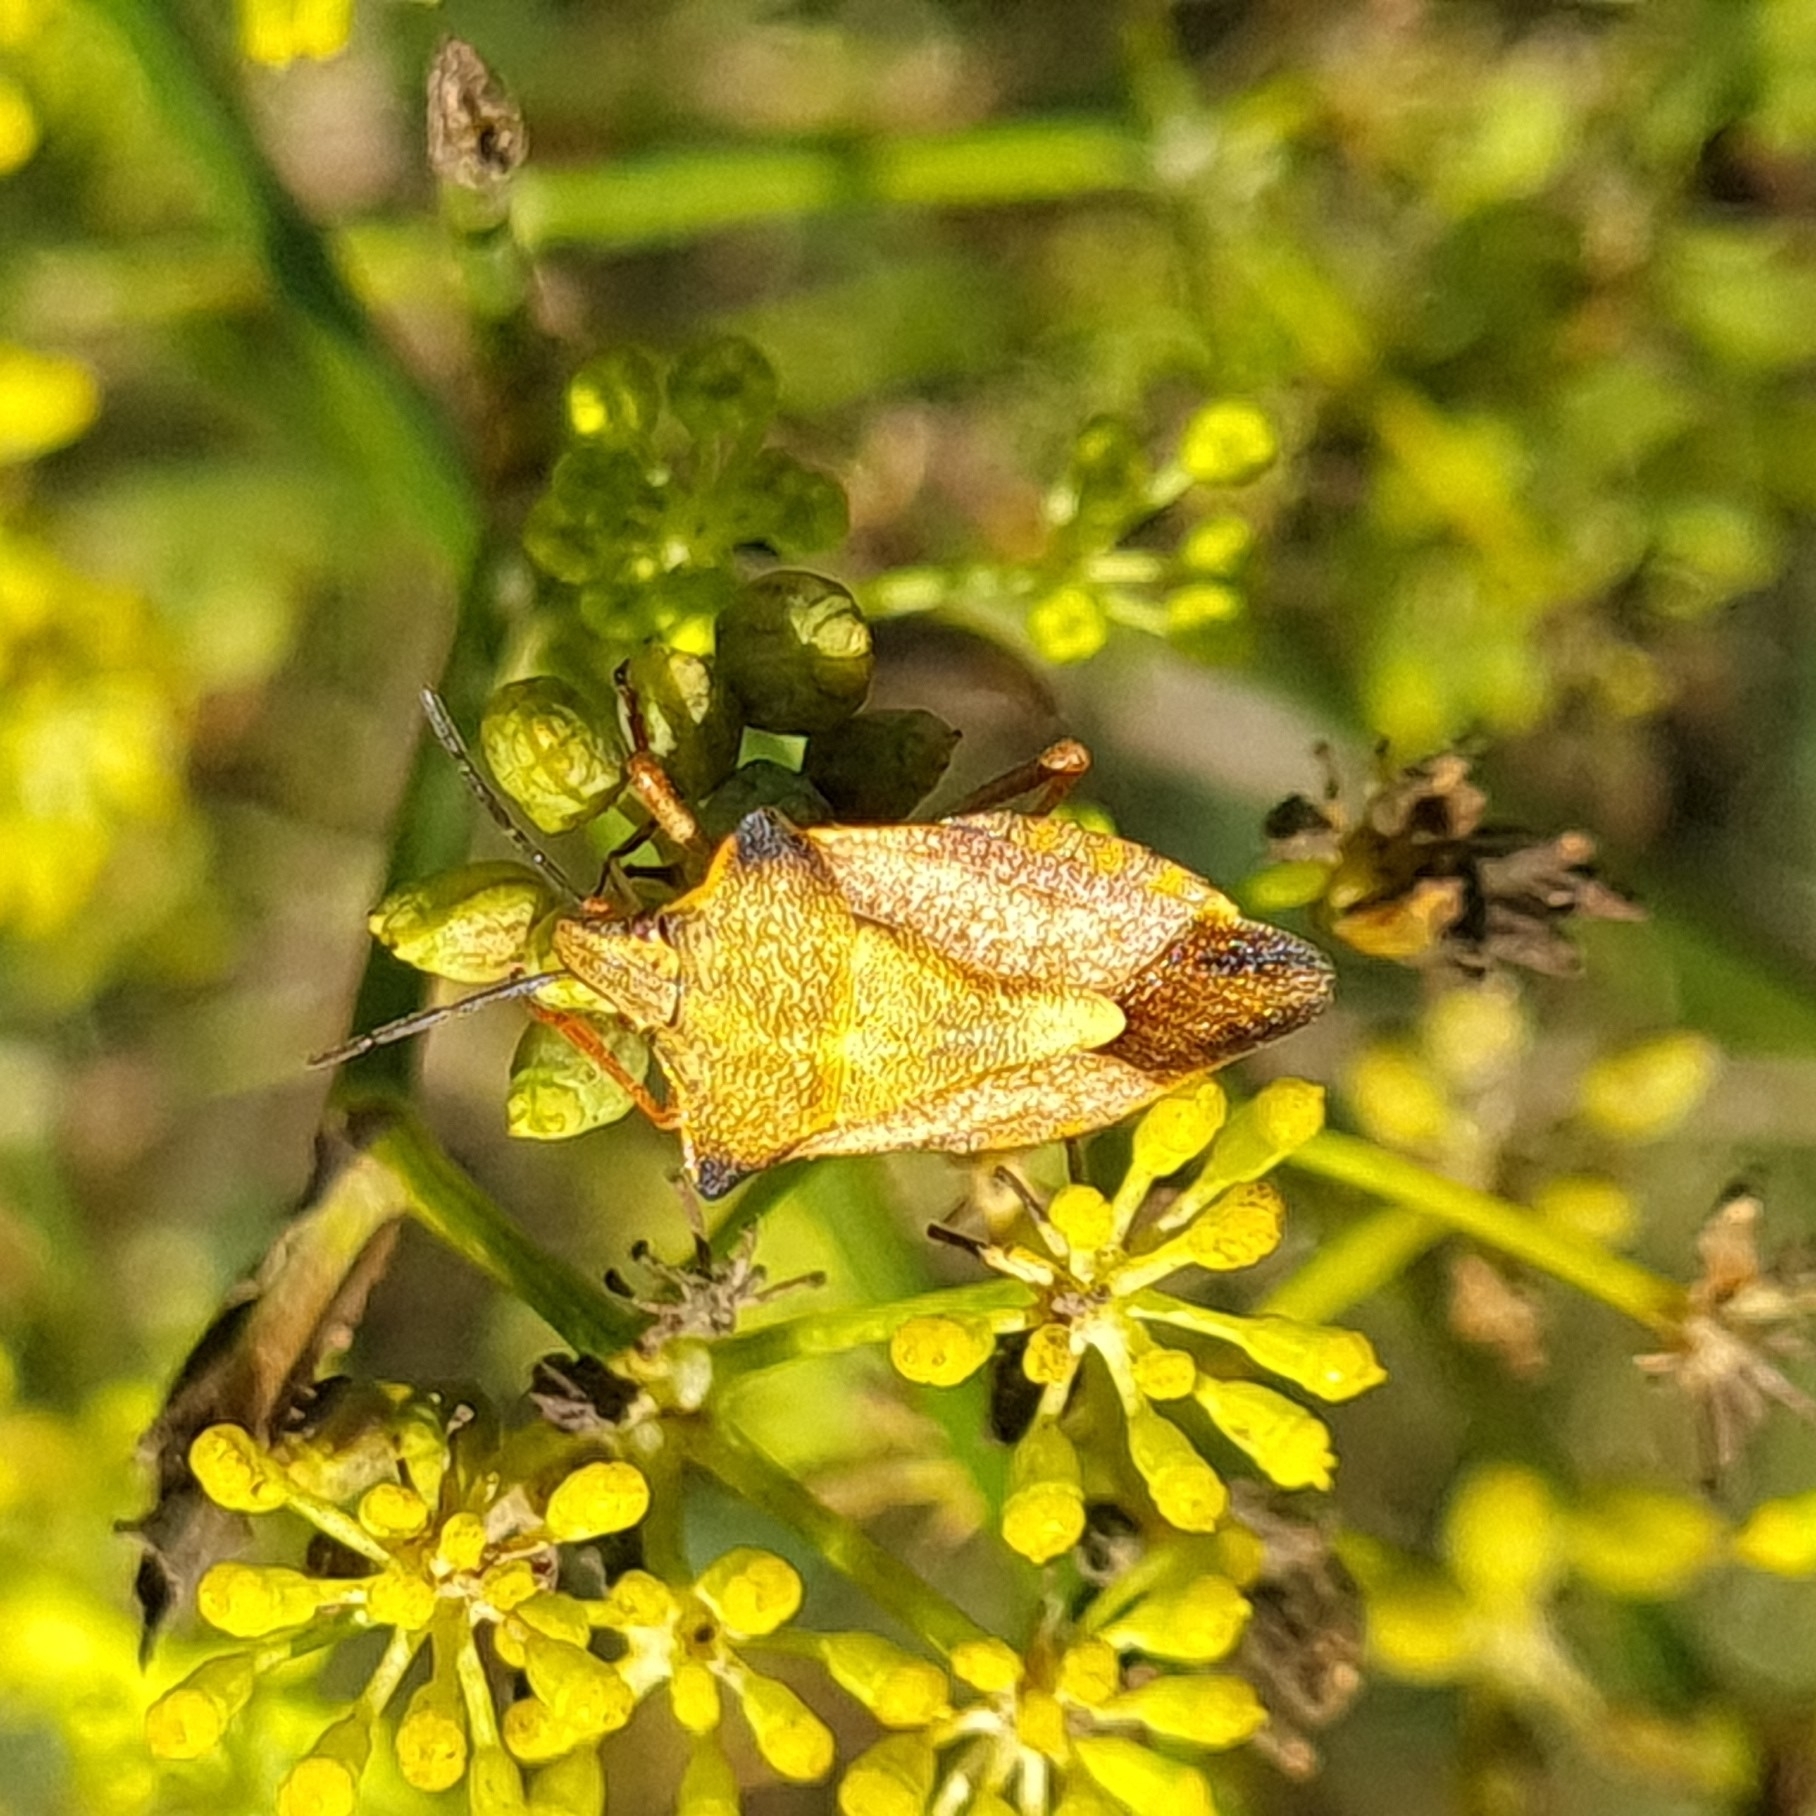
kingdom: Animalia
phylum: Arthropoda
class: Insecta
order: Hemiptera
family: Pentatomidae
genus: Carpocoris
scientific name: Carpocoris mediterraneus
